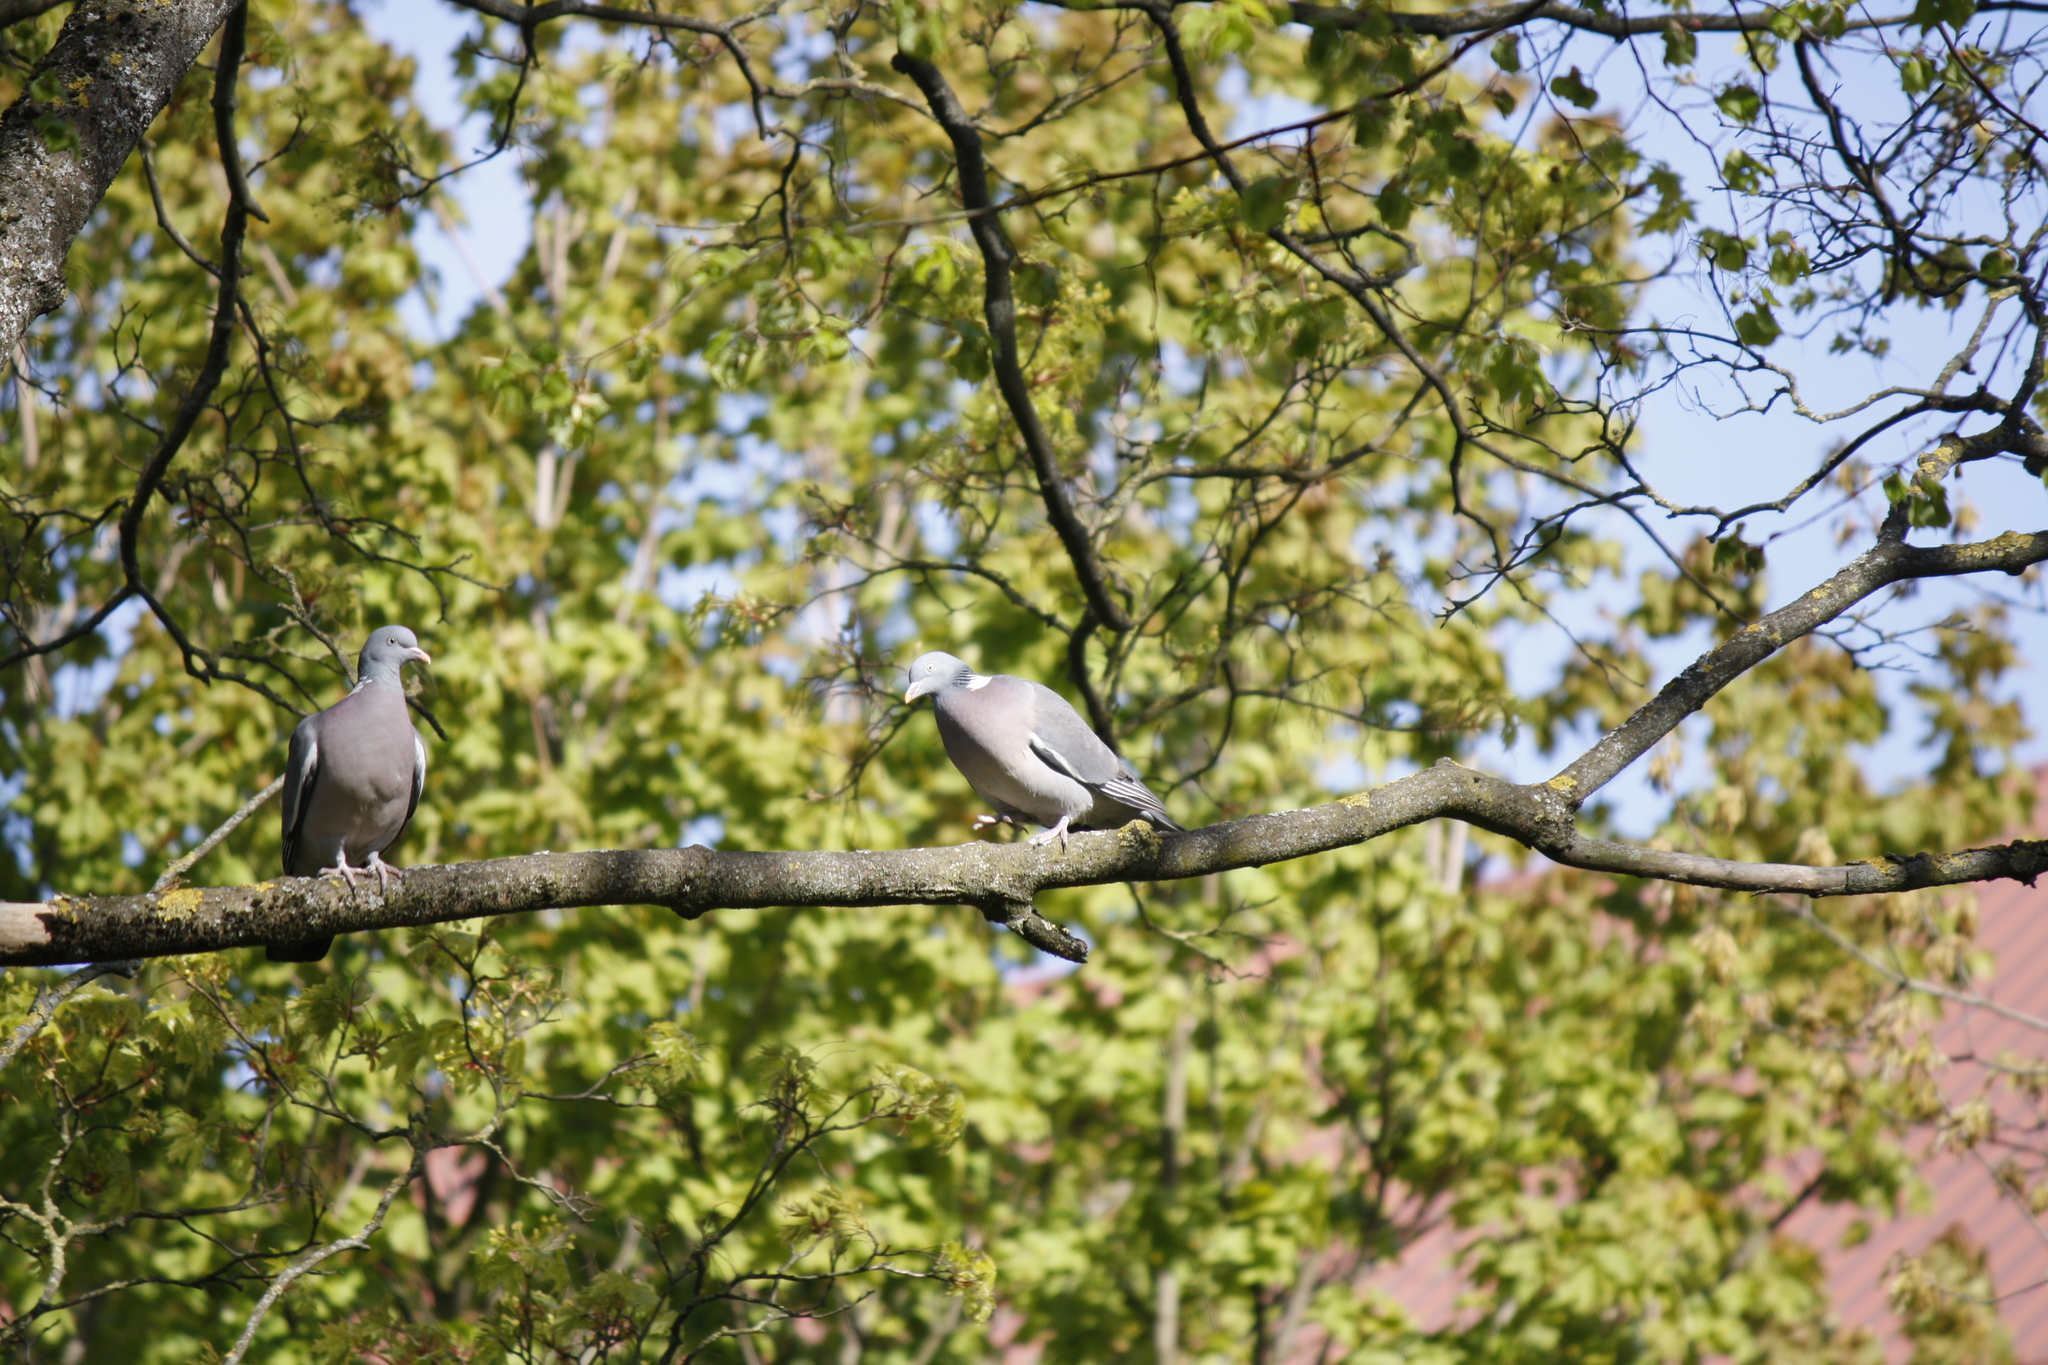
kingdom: Animalia
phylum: Chordata
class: Aves
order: Columbiformes
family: Columbidae
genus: Columba
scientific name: Columba palumbus
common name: Common wood pigeon
